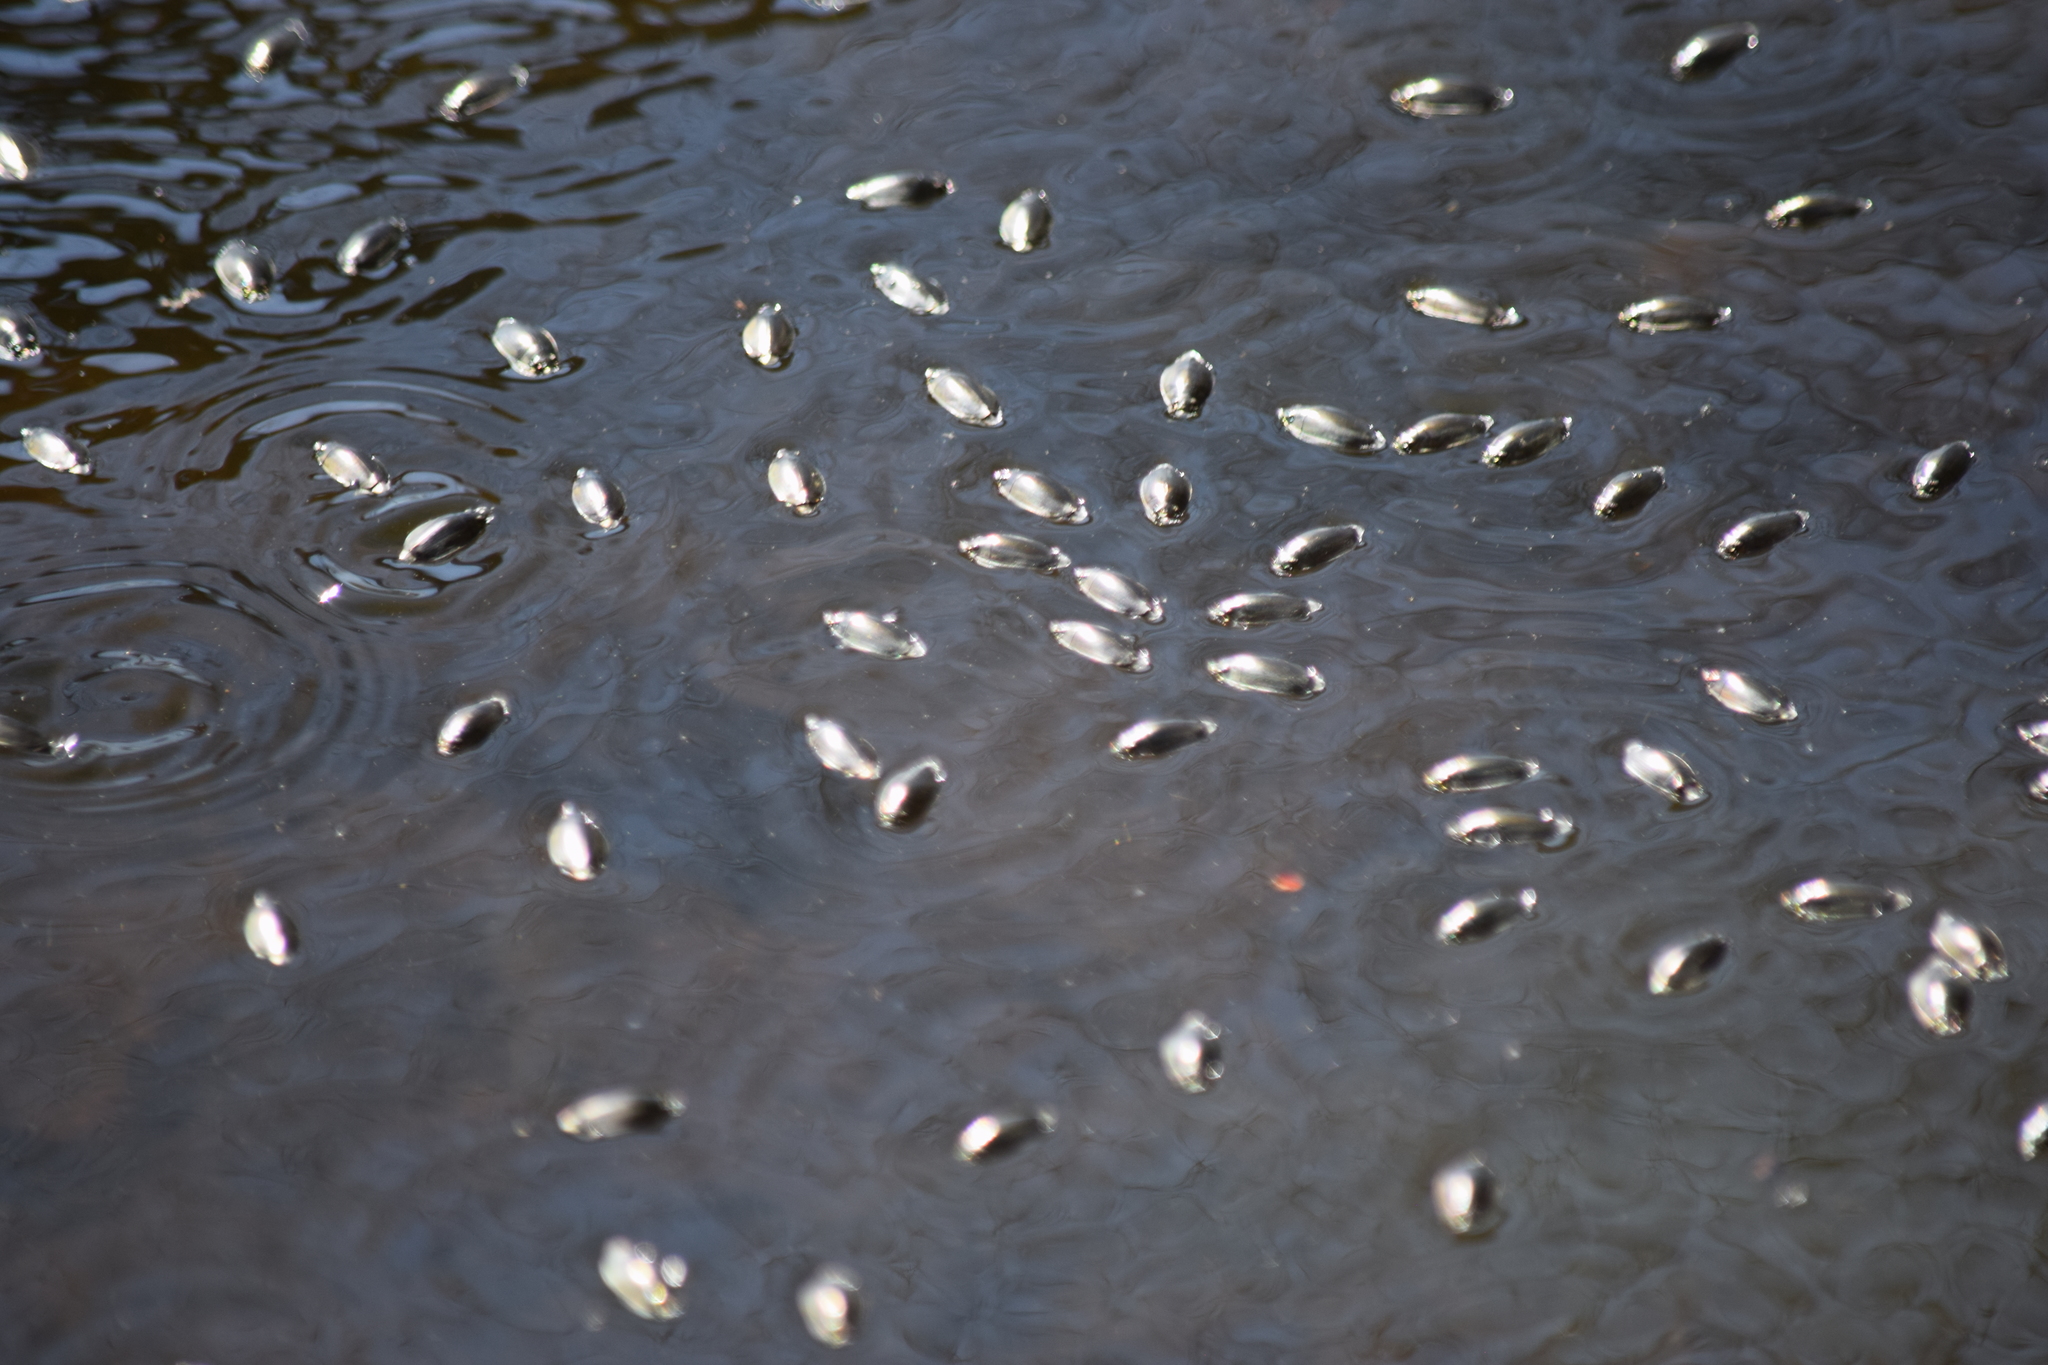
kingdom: Animalia
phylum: Arthropoda
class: Insecta
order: Coleoptera
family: Gyrinidae
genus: Dineutus
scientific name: Dineutus
